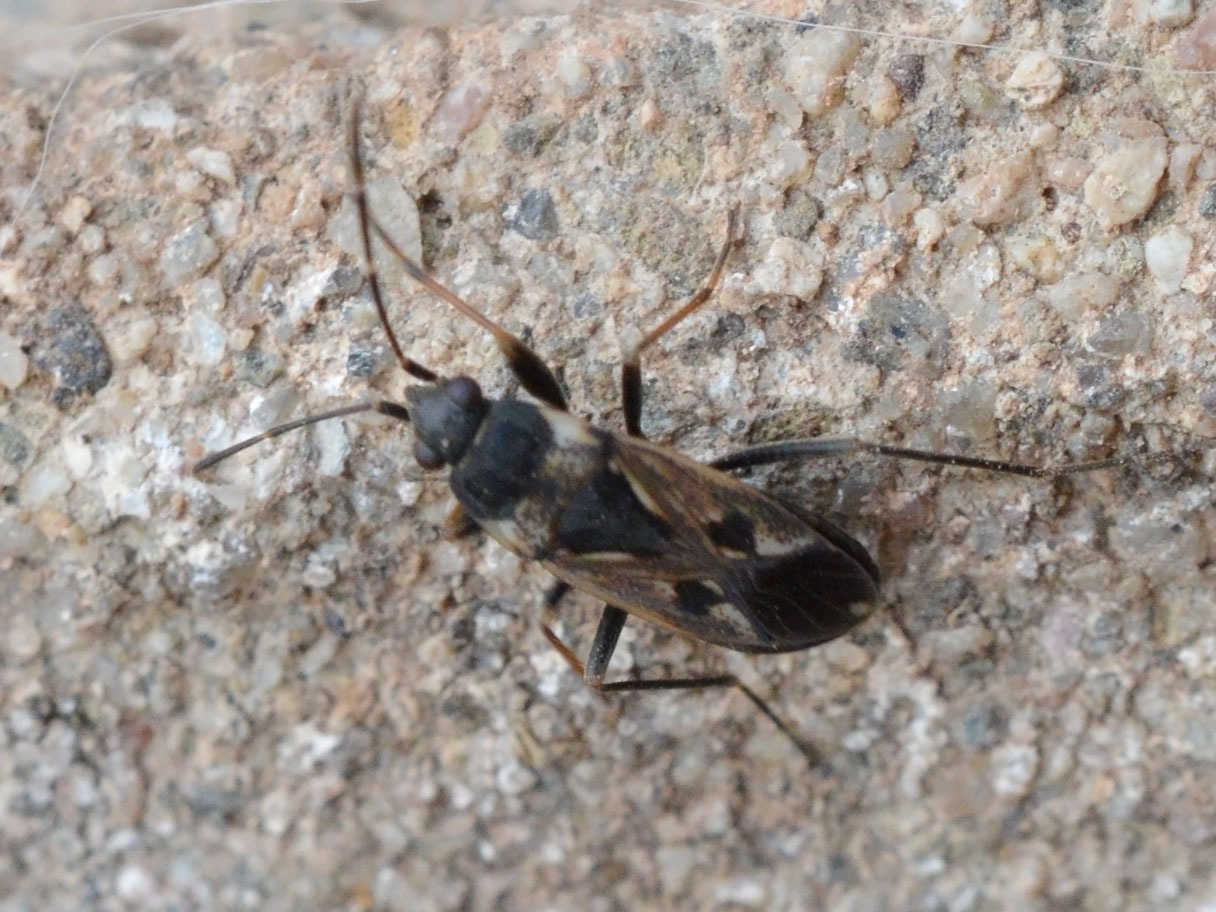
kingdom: Animalia
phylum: Arthropoda
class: Insecta
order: Hemiptera
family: Rhyparochromidae
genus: Rhyparochromus
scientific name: Rhyparochromus vulgaris
